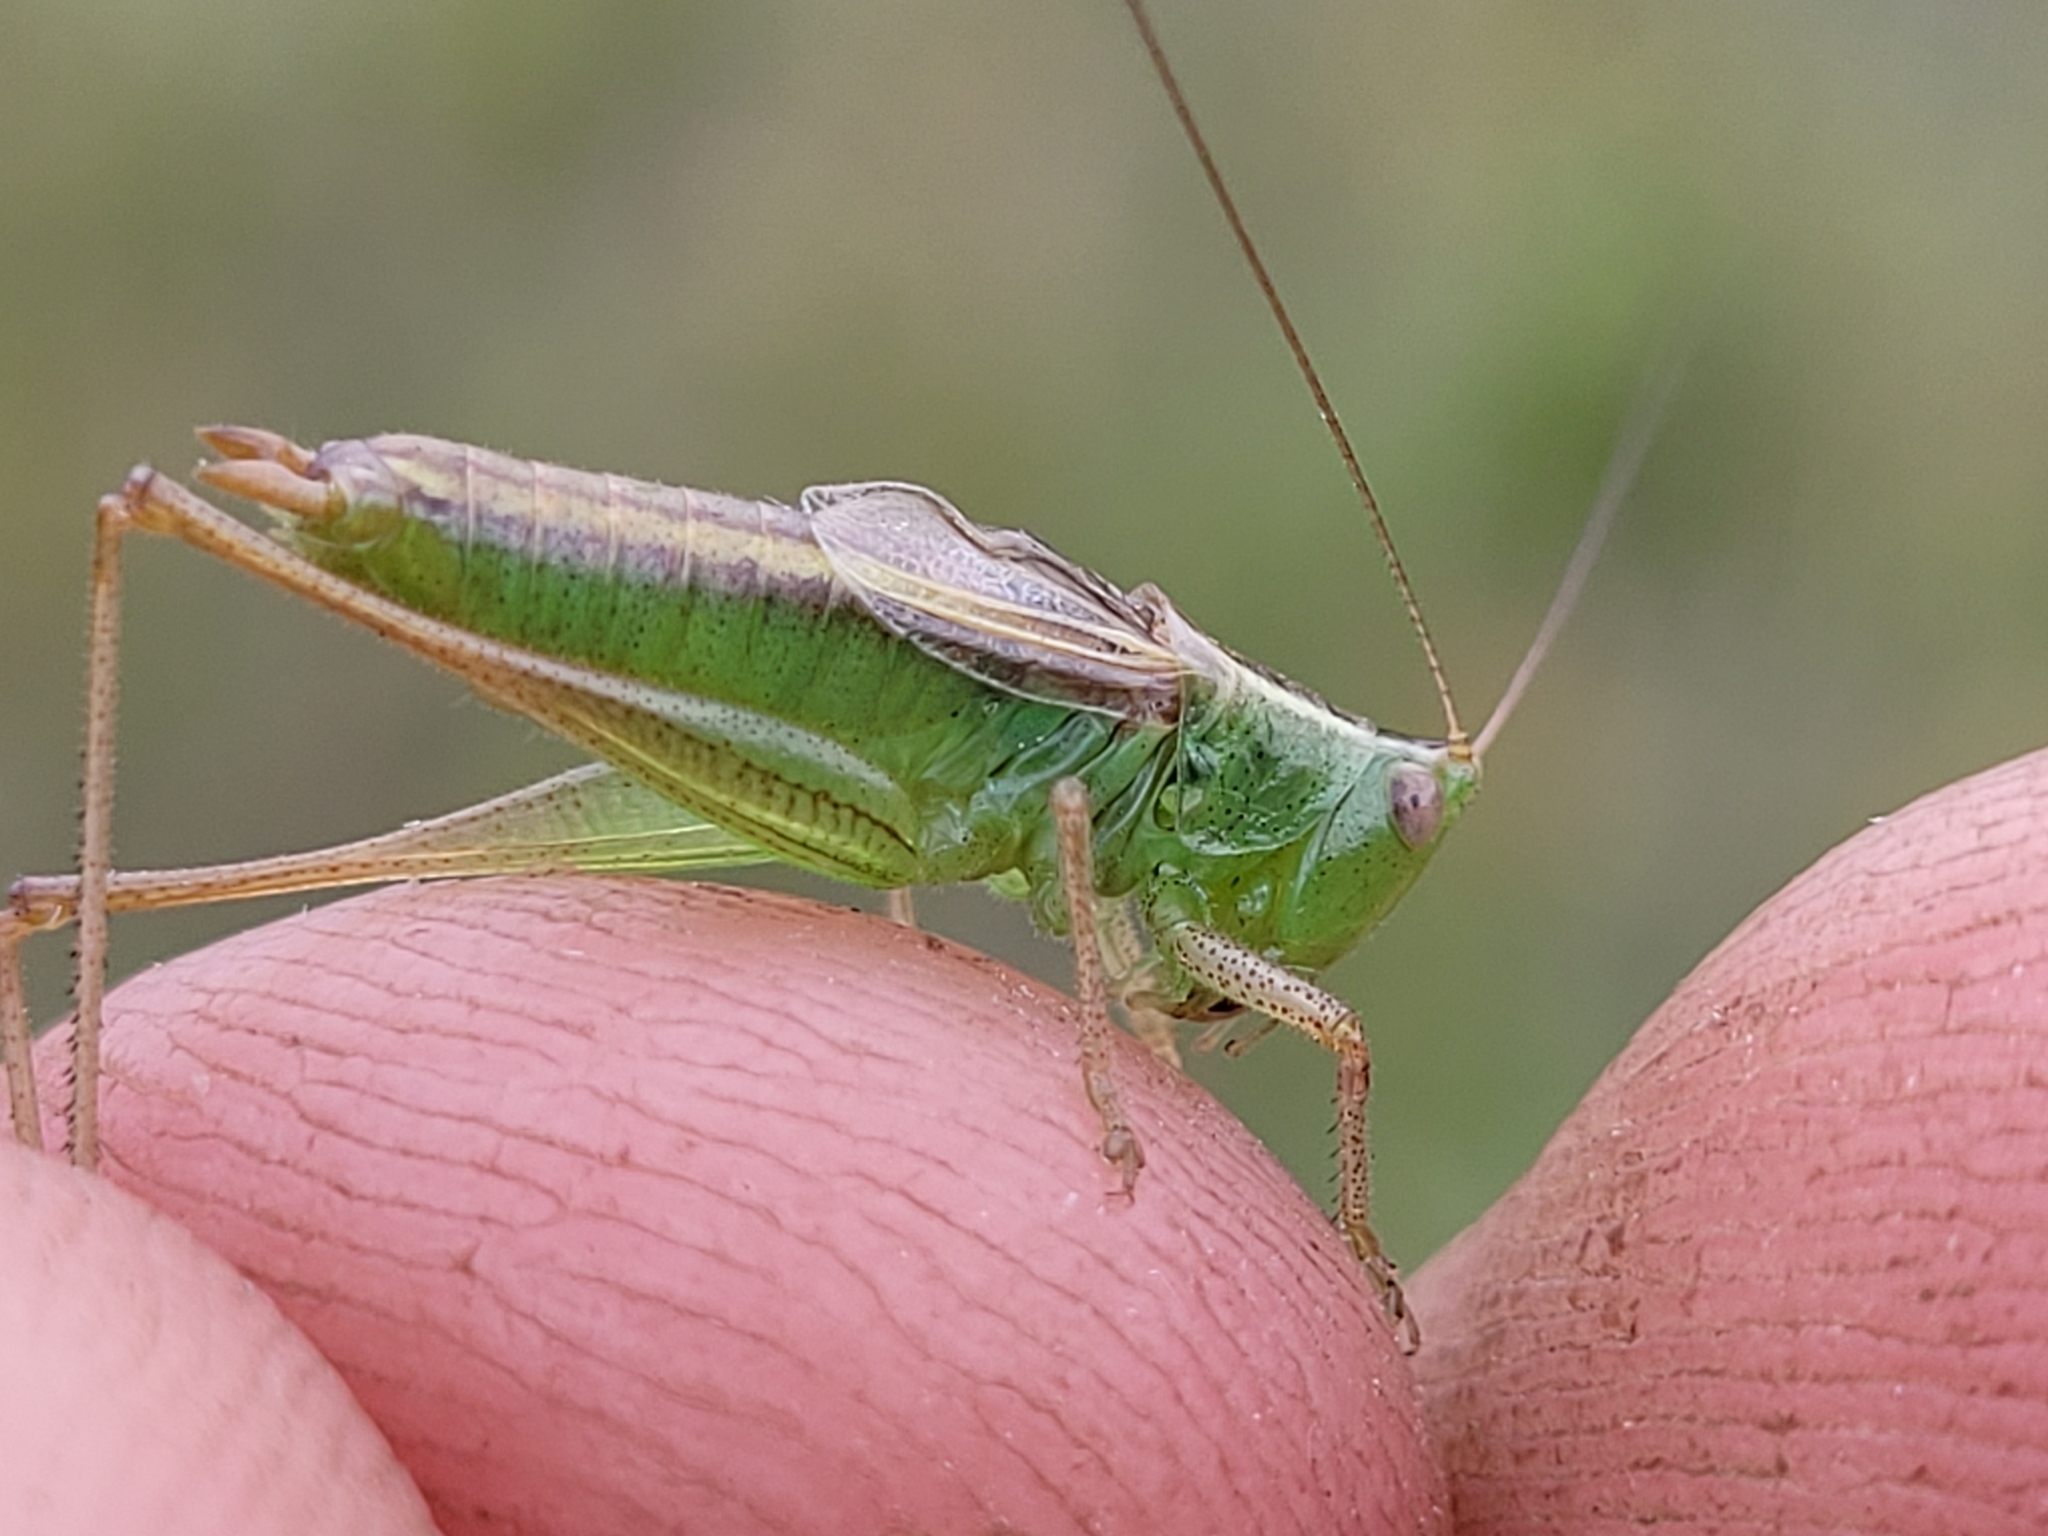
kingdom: Animalia
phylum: Arthropoda
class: Insecta
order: Orthoptera
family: Tettigoniidae
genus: Conocephalus
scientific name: Conocephalus saltans
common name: Prairie meadow katydid
